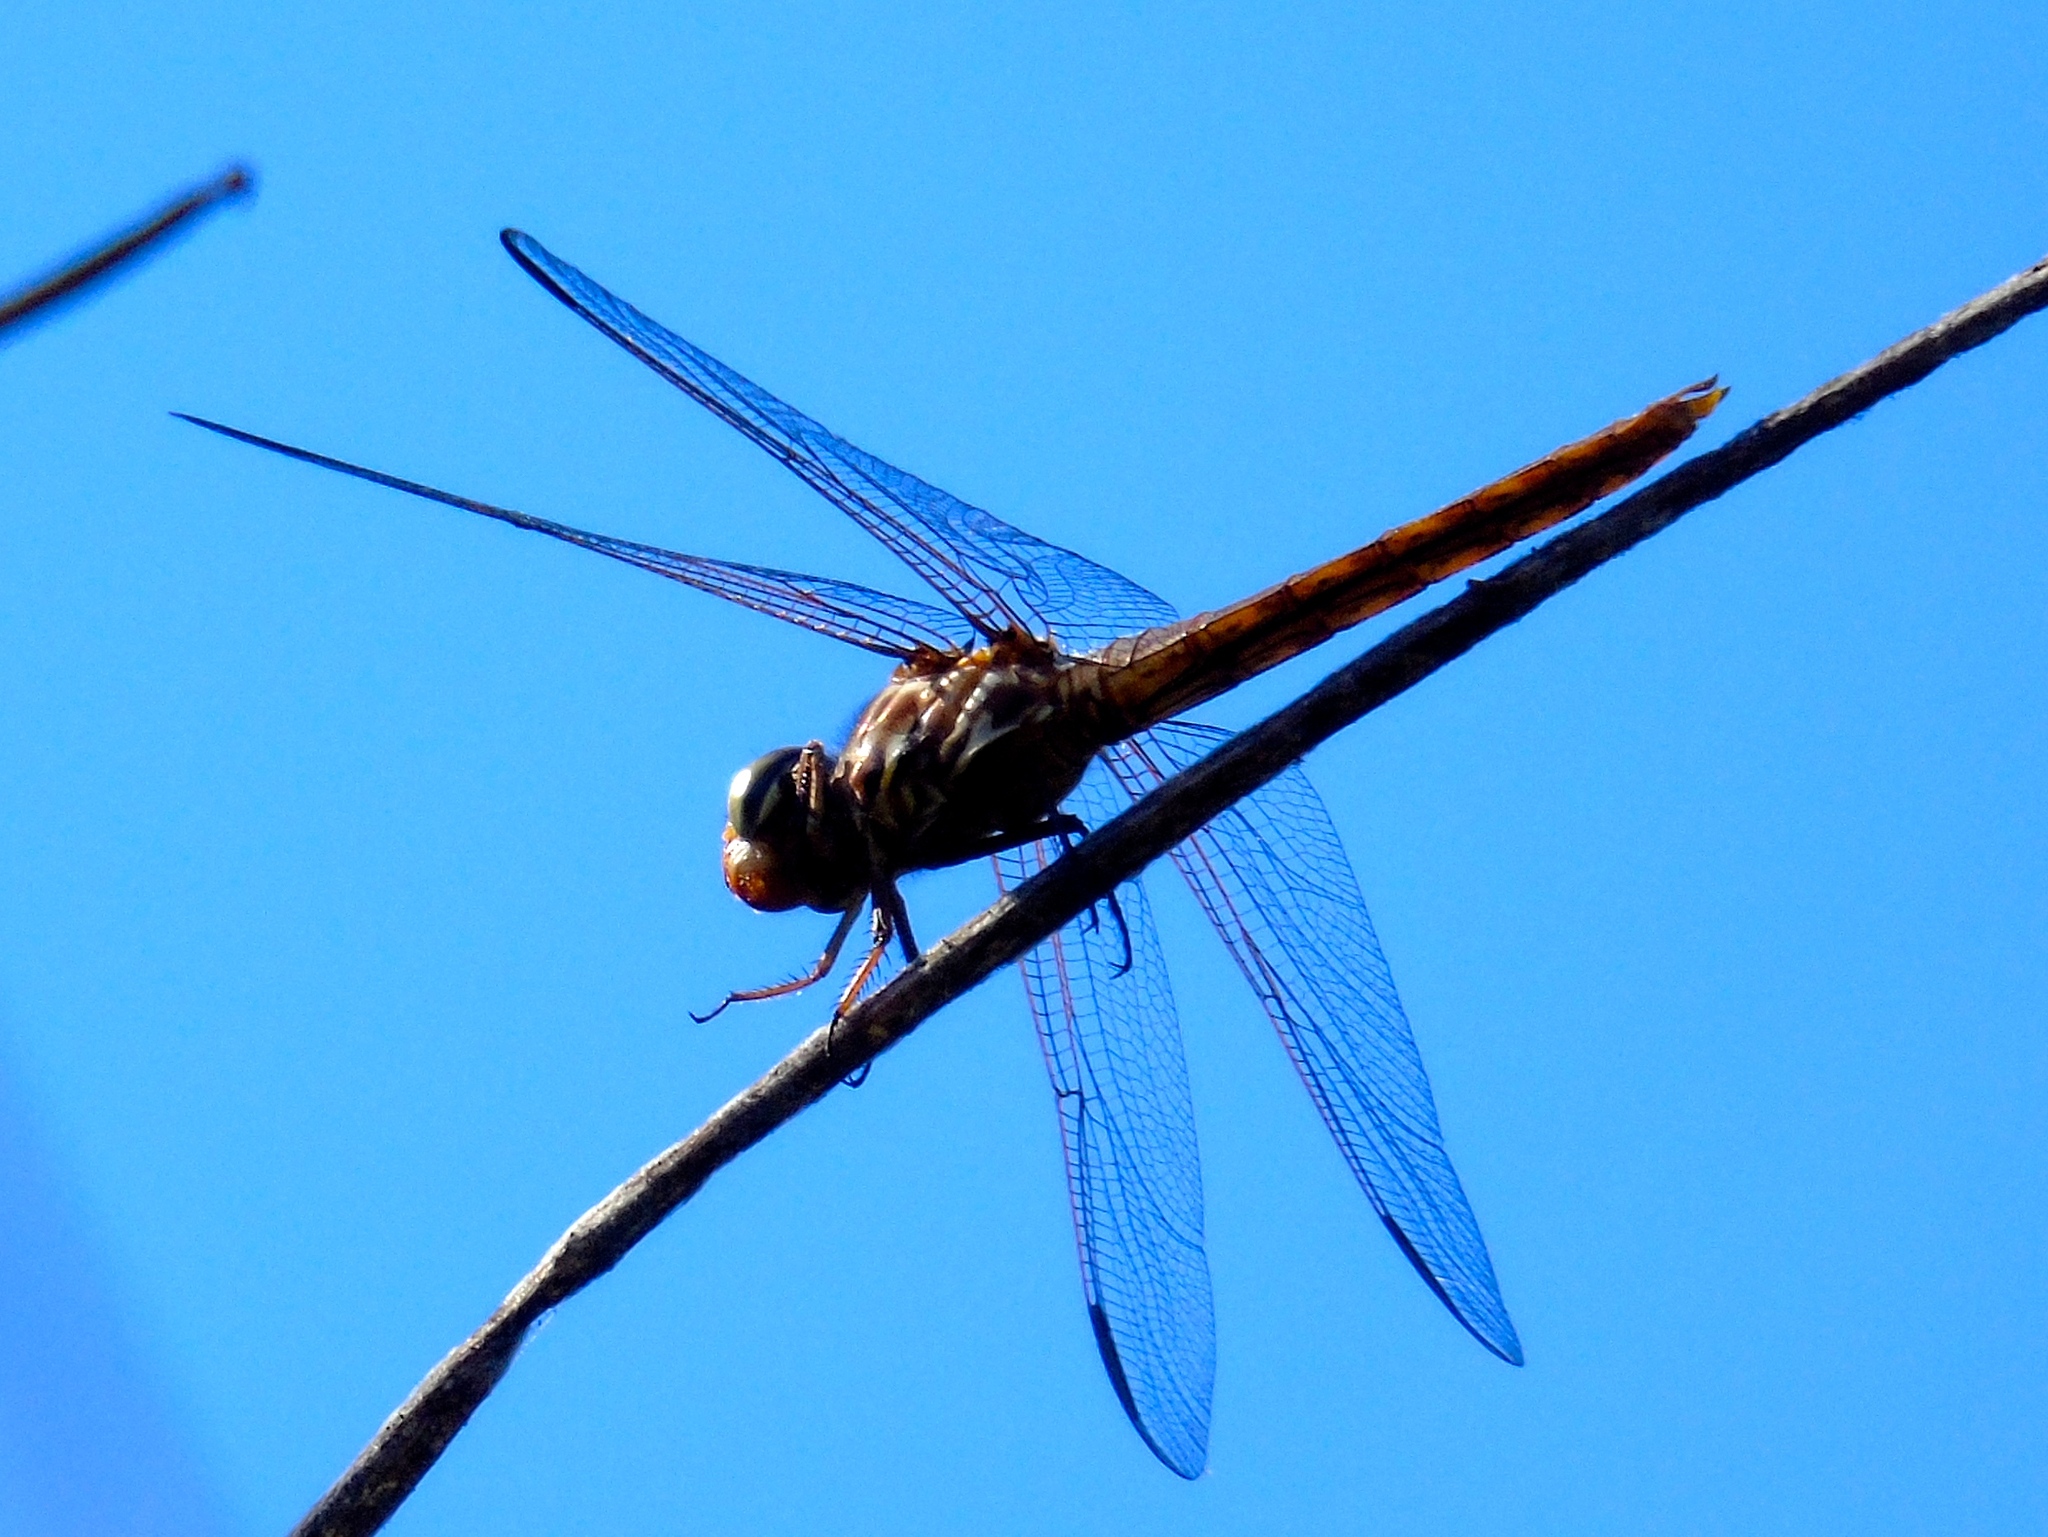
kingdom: Animalia
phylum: Arthropoda
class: Insecta
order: Odonata
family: Libellulidae
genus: Orthemis
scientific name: Orthemis ferruginea
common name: Roseate skimmer
